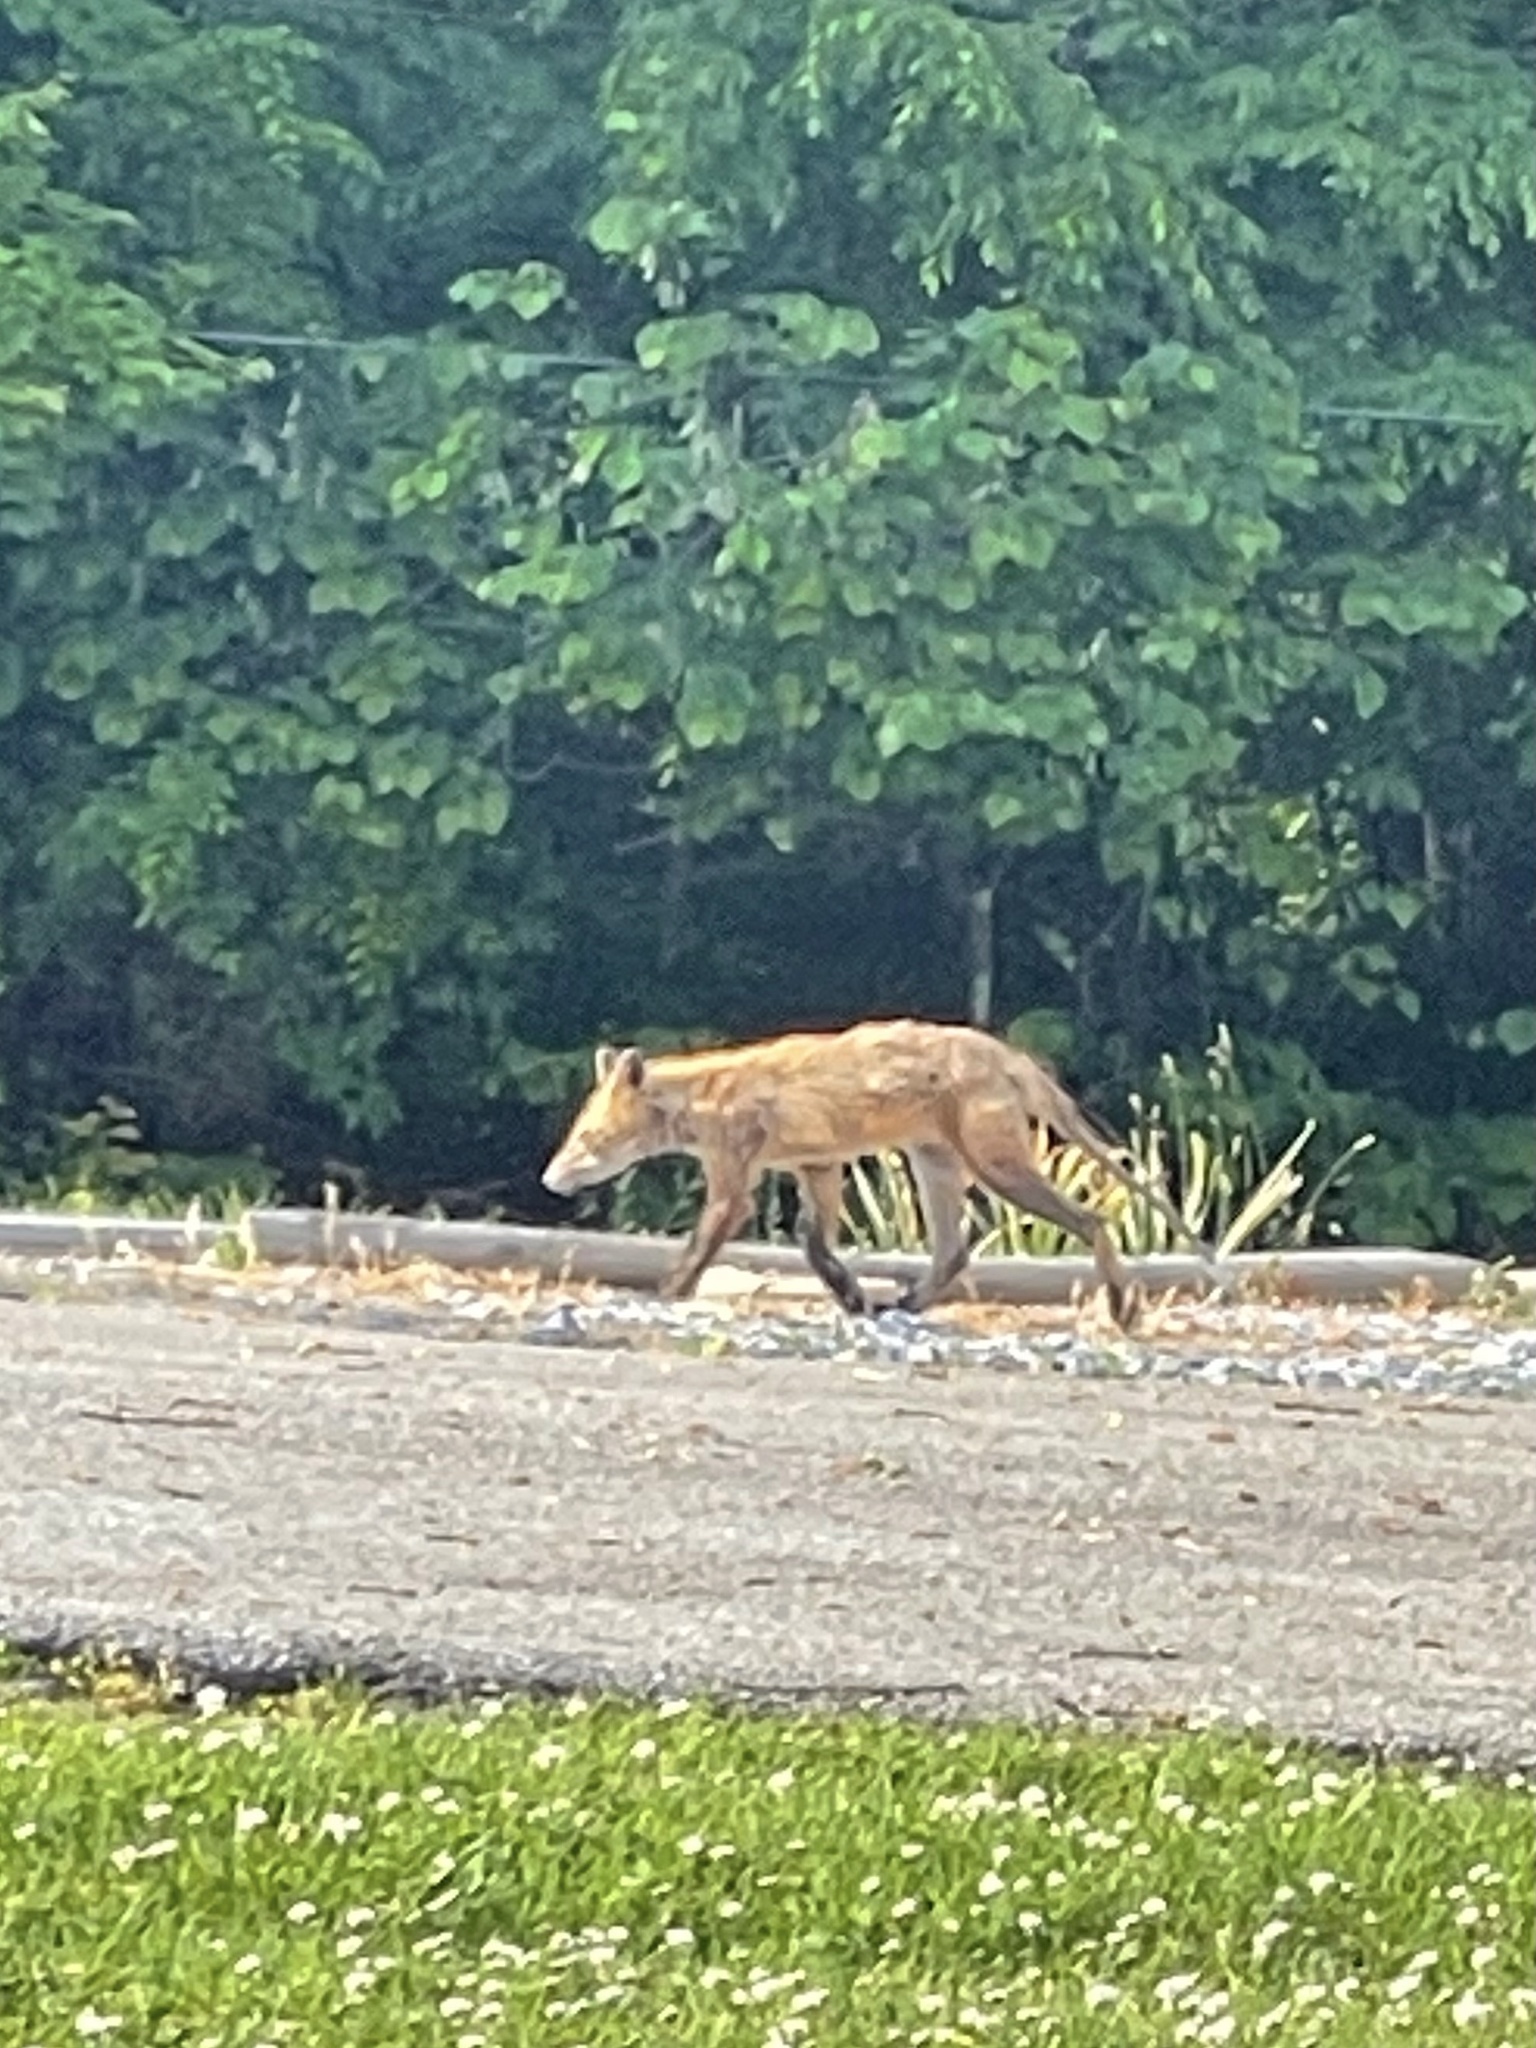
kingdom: Animalia
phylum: Chordata
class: Mammalia
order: Carnivora
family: Canidae
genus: Vulpes
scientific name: Vulpes vulpes
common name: Red fox
